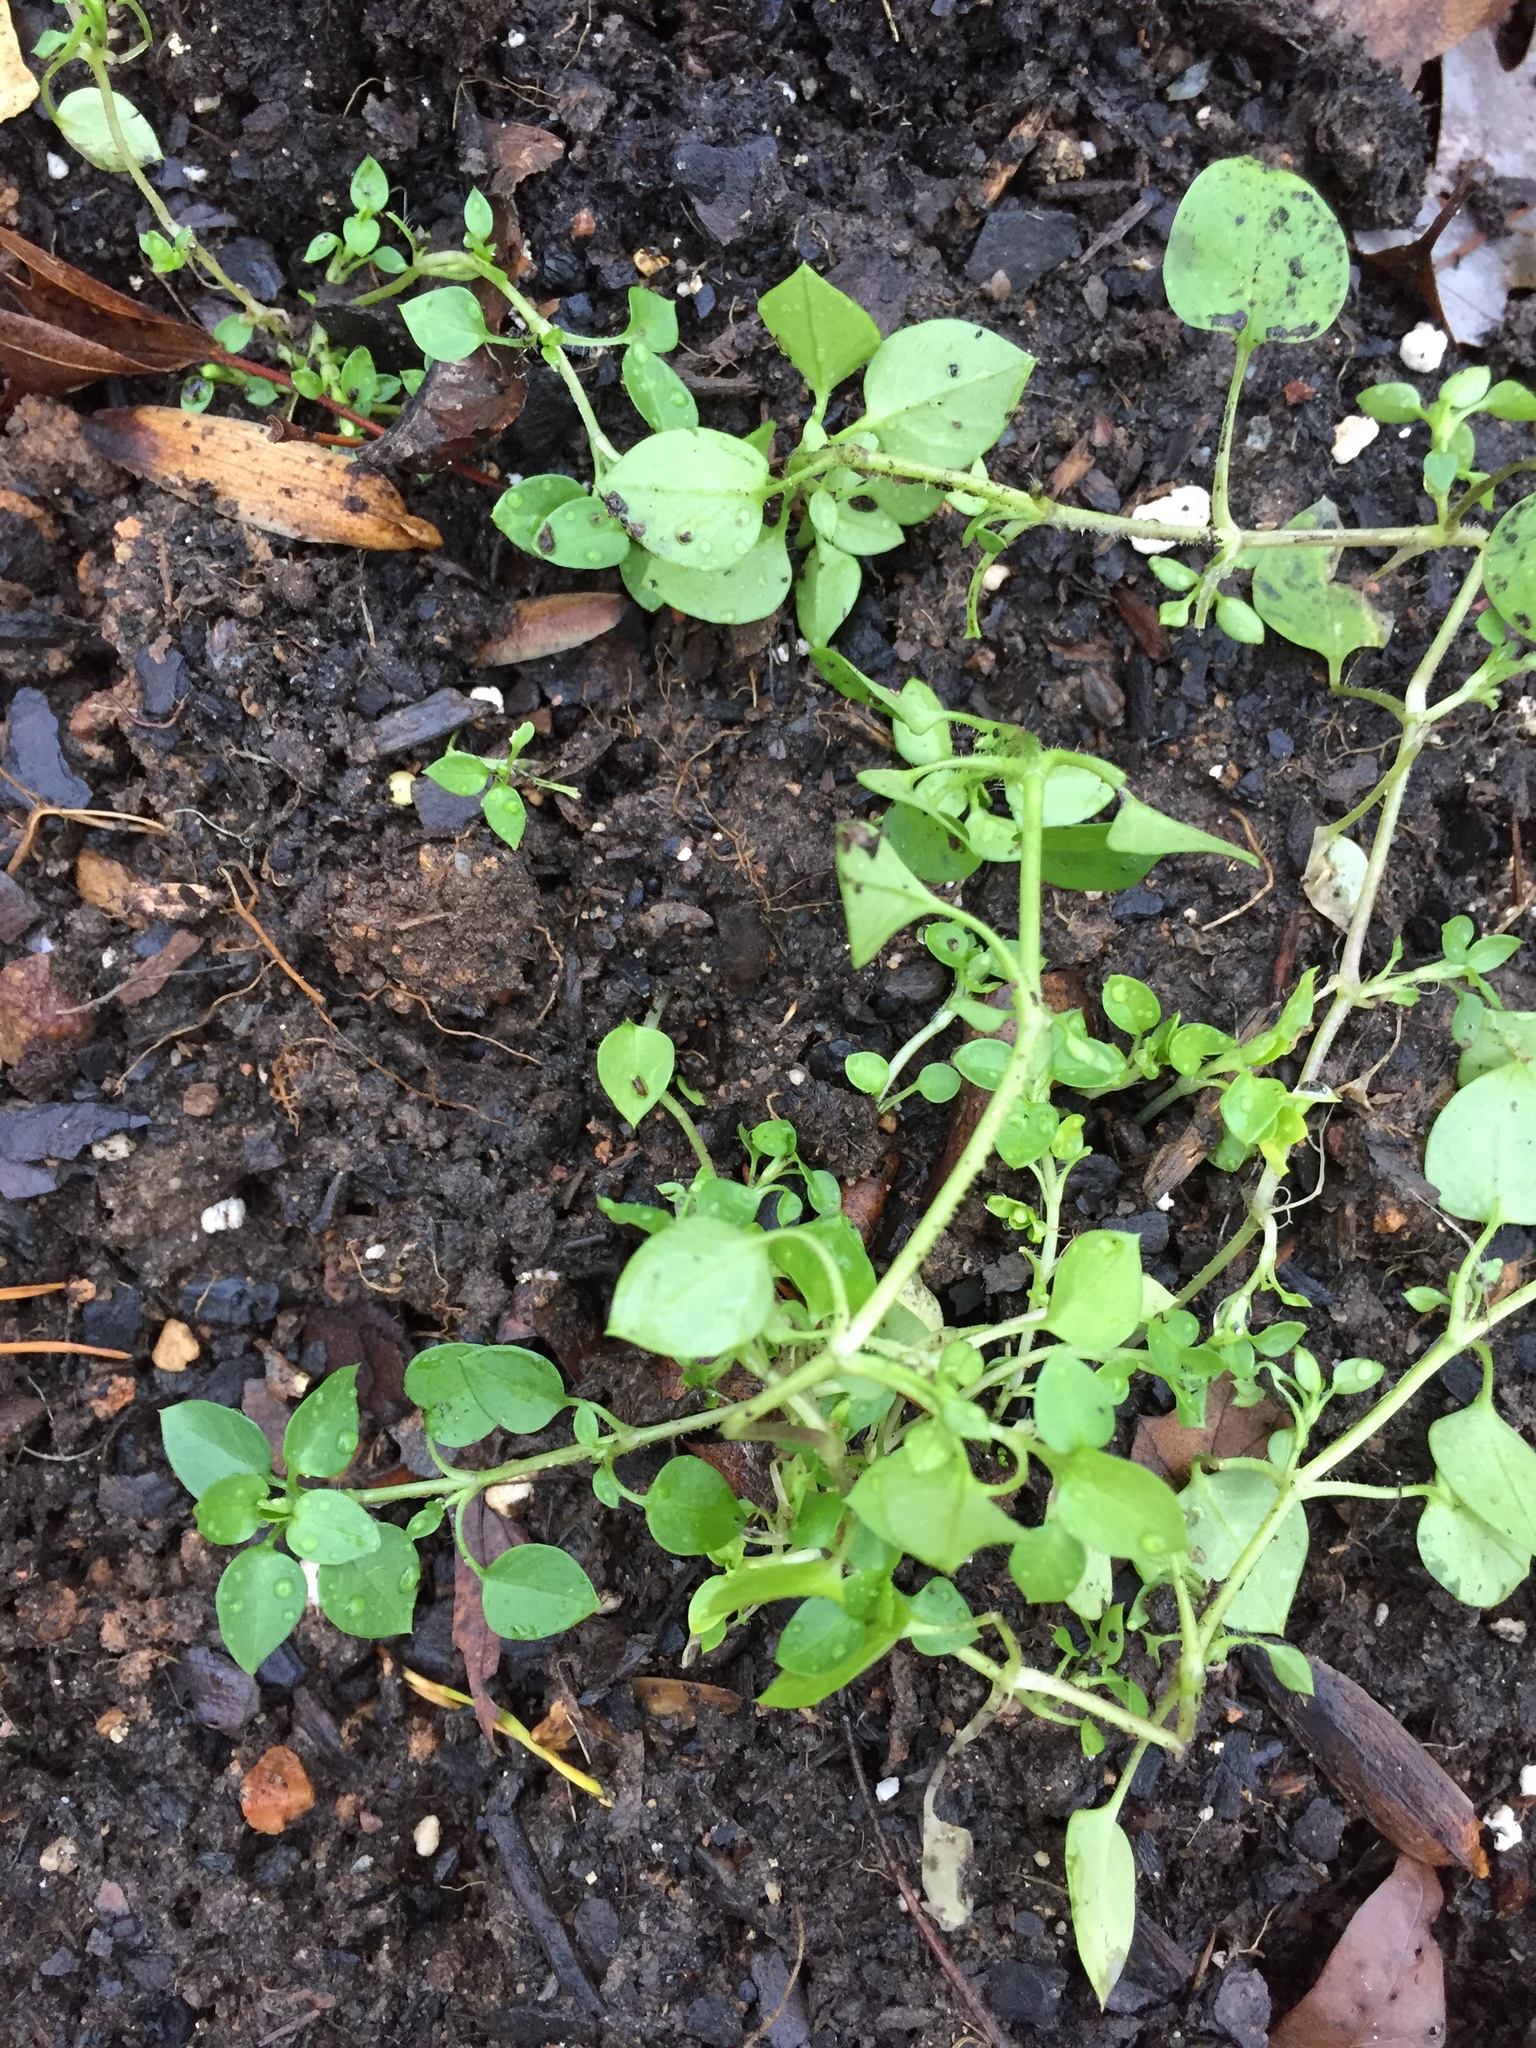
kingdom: Plantae
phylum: Tracheophyta
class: Magnoliopsida
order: Caryophyllales
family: Caryophyllaceae
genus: Stellaria
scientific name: Stellaria media
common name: Common chickweed
